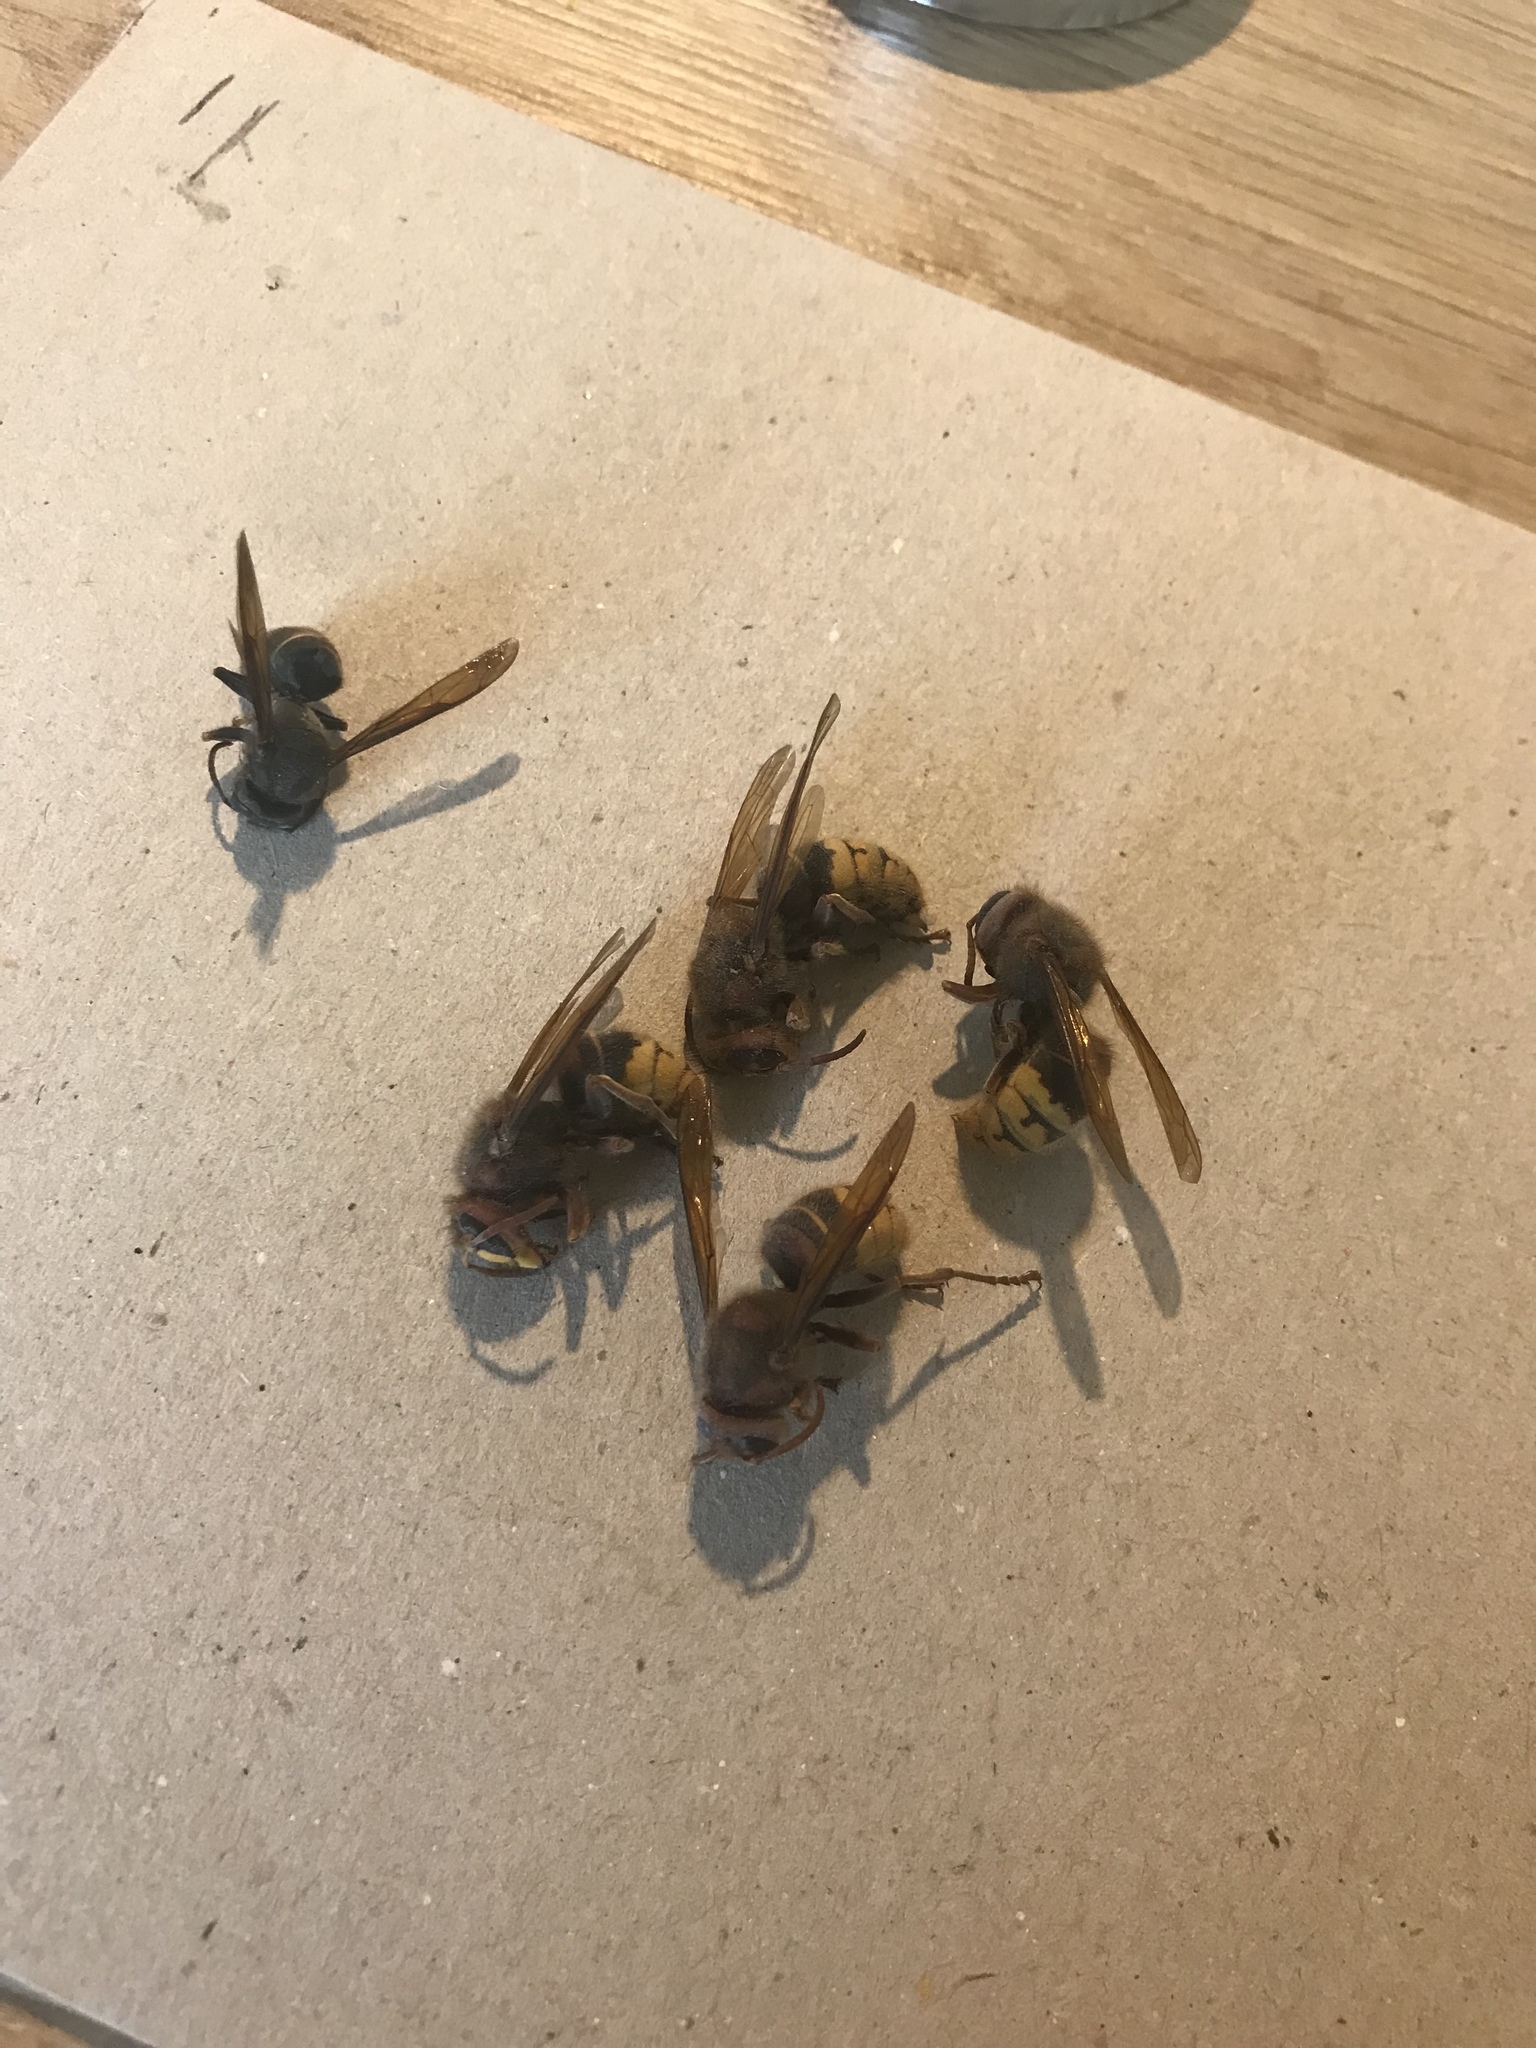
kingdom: Animalia
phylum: Arthropoda
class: Insecta
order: Hymenoptera
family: Vespidae
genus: Vespa
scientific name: Vespa crabro
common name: Hornet
